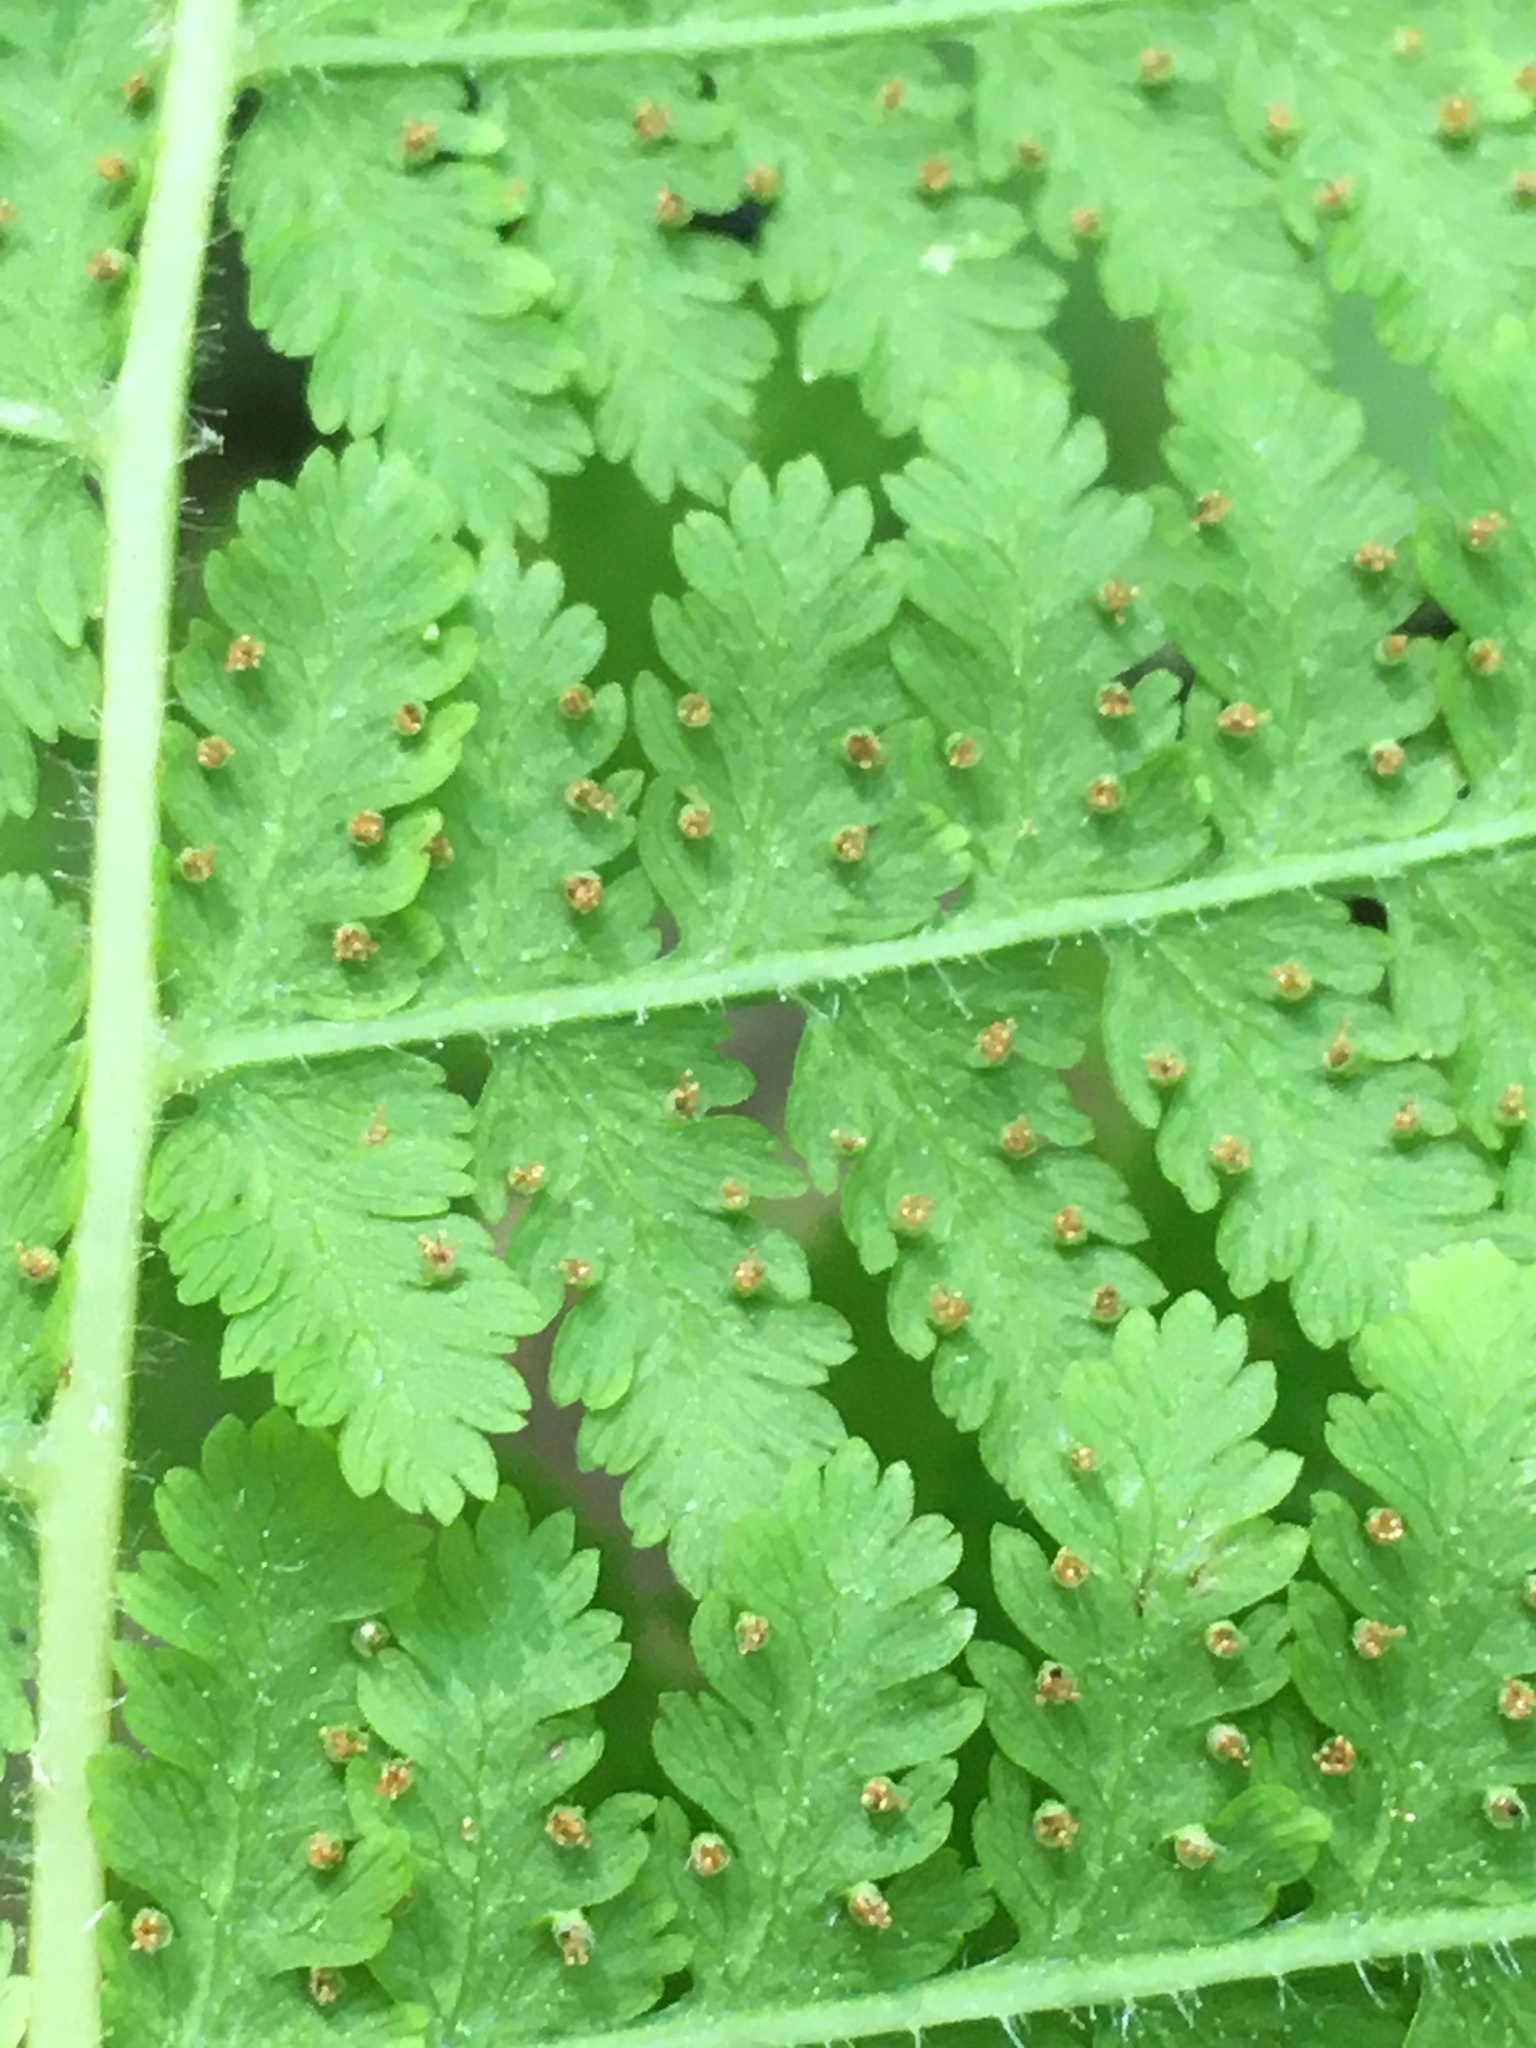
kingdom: Plantae
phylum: Tracheophyta
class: Polypodiopsida
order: Polypodiales
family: Dennstaedtiaceae
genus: Sitobolium
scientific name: Sitobolium punctilobum
